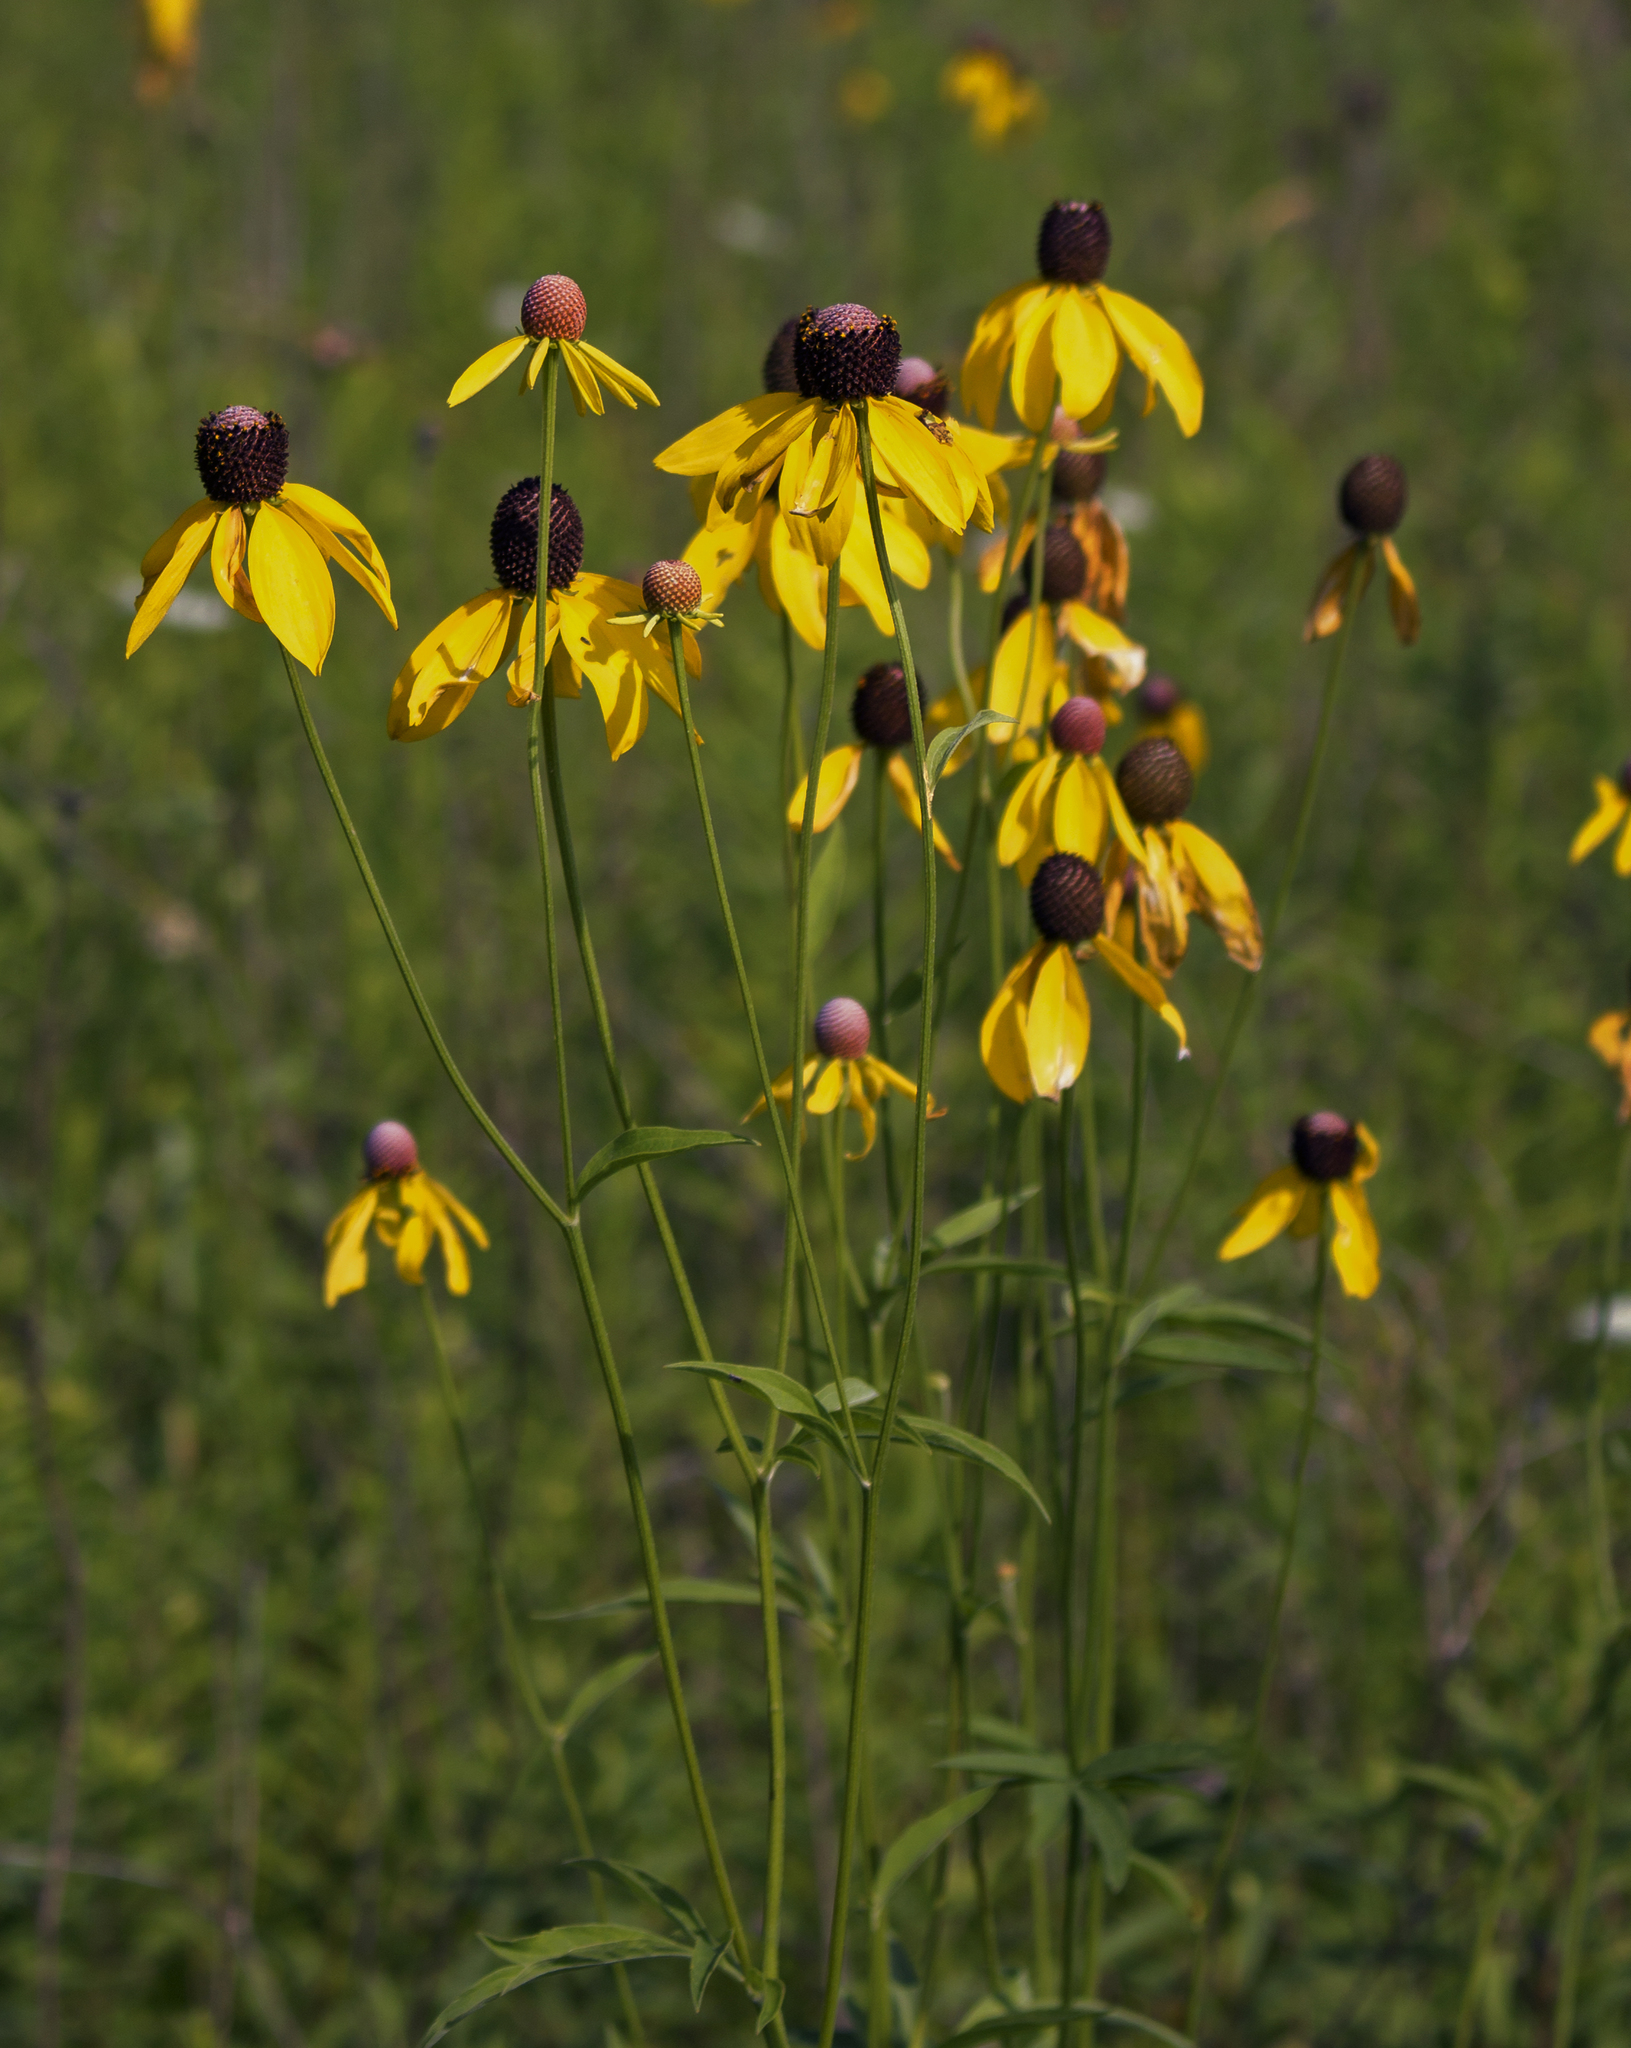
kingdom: Plantae
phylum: Tracheophyta
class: Magnoliopsida
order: Asterales
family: Asteraceae
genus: Ratibida
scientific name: Ratibida pinnata
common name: Drooping prairie-coneflower
